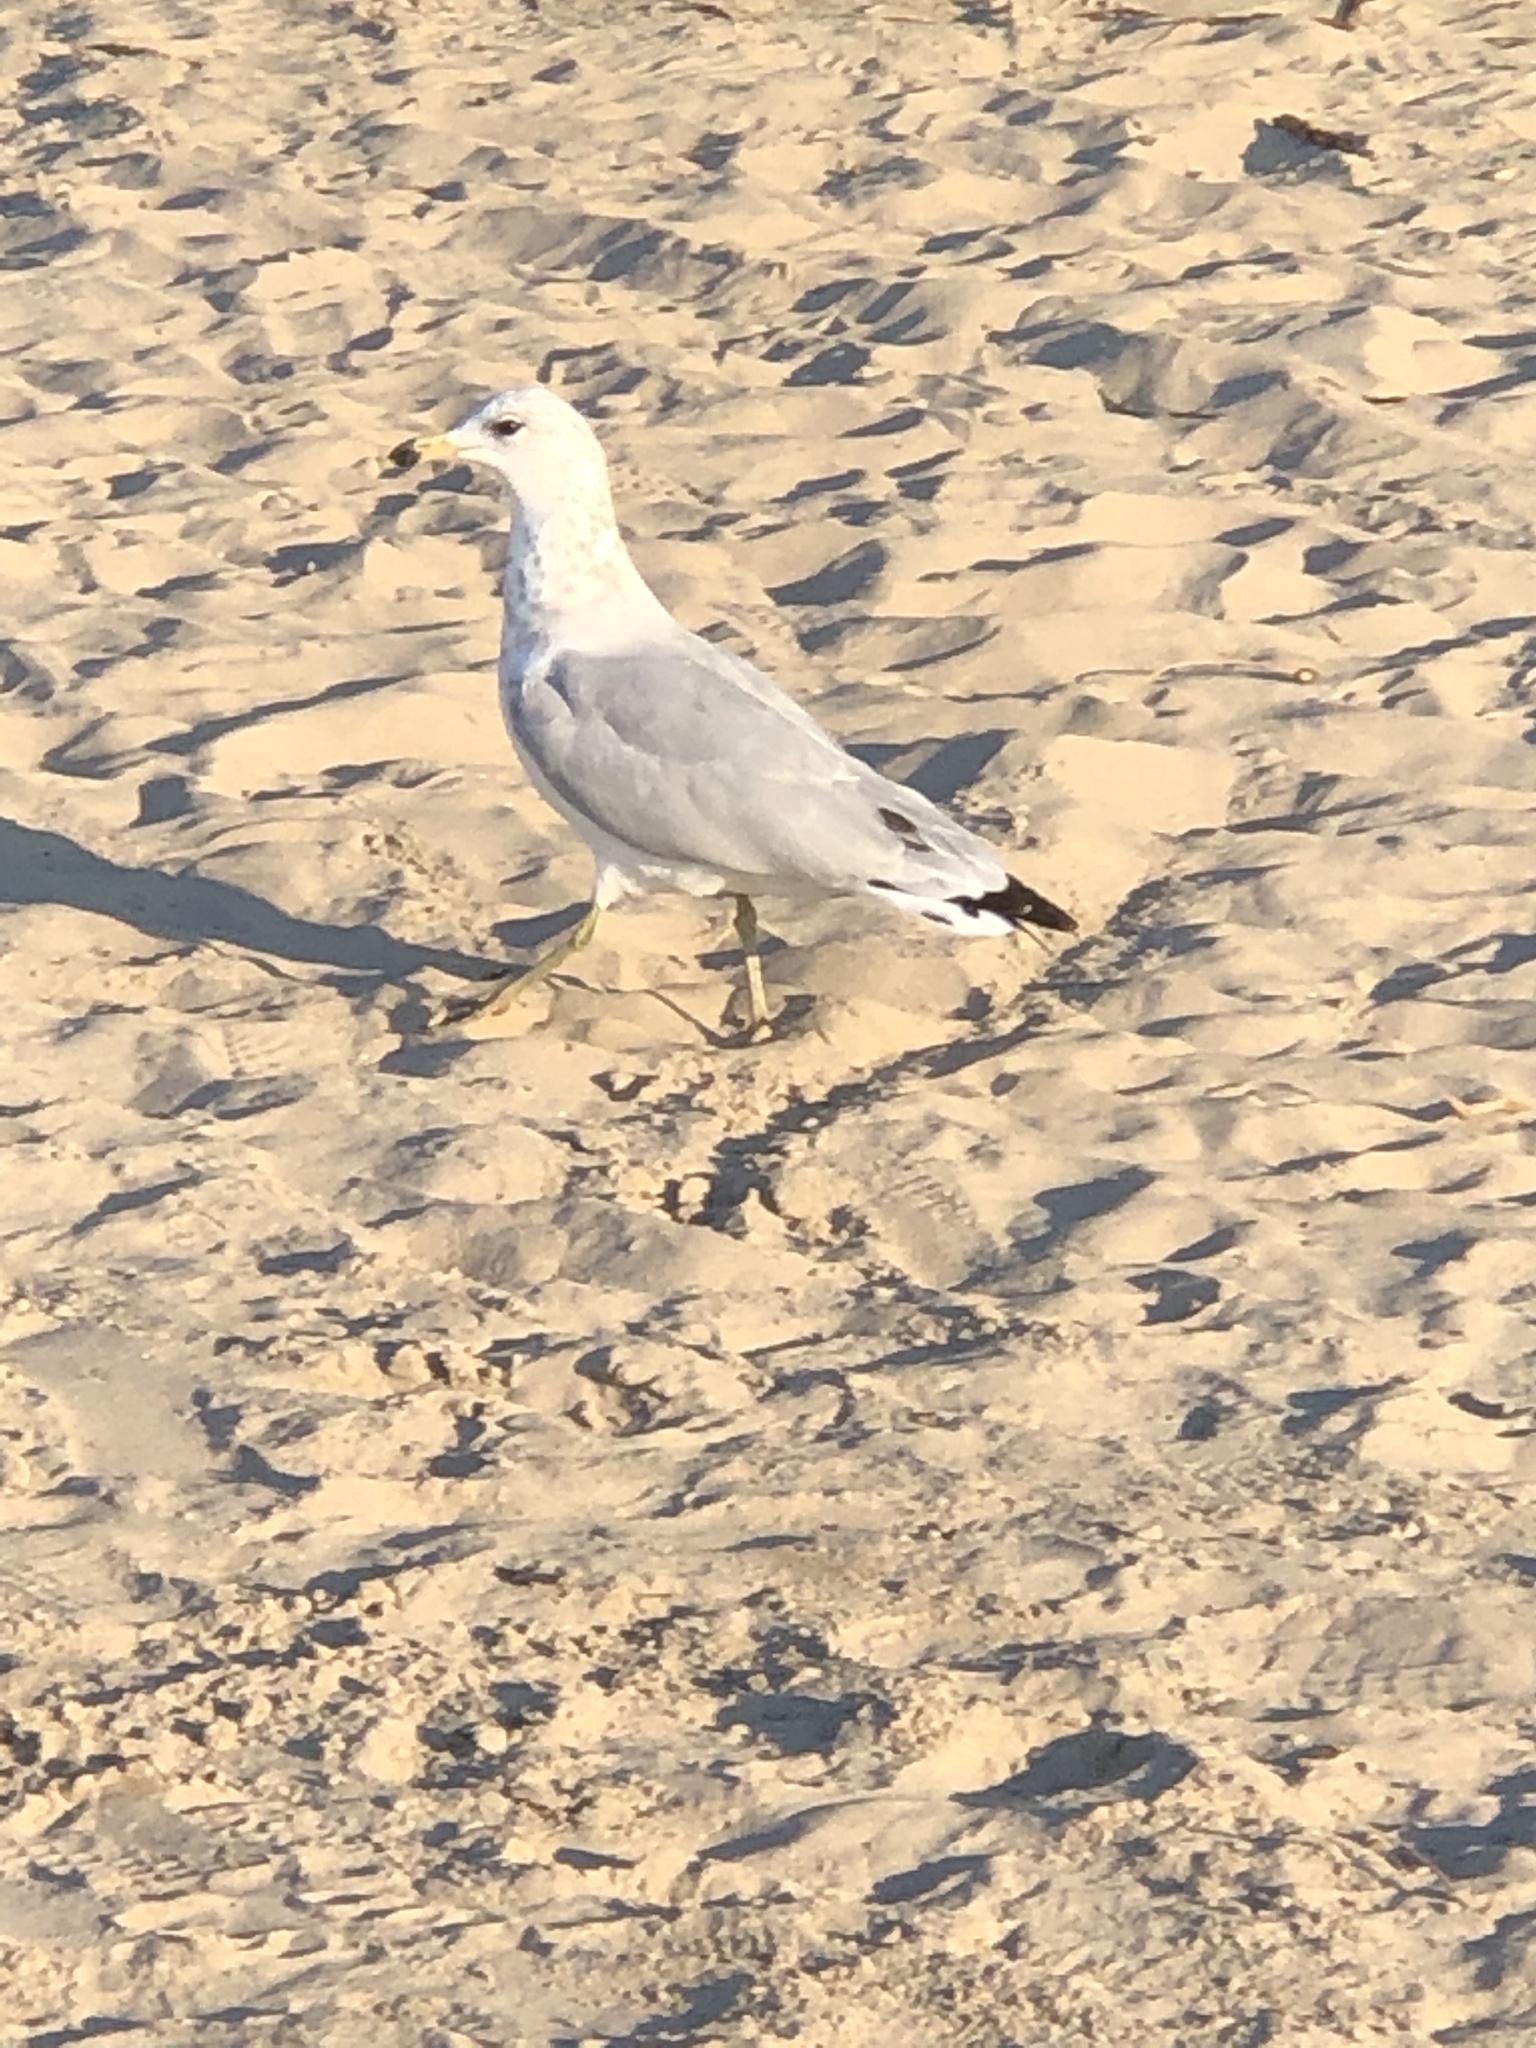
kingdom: Animalia
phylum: Chordata
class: Aves
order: Charadriiformes
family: Laridae
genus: Larus
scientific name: Larus delawarensis
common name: Ring-billed gull
